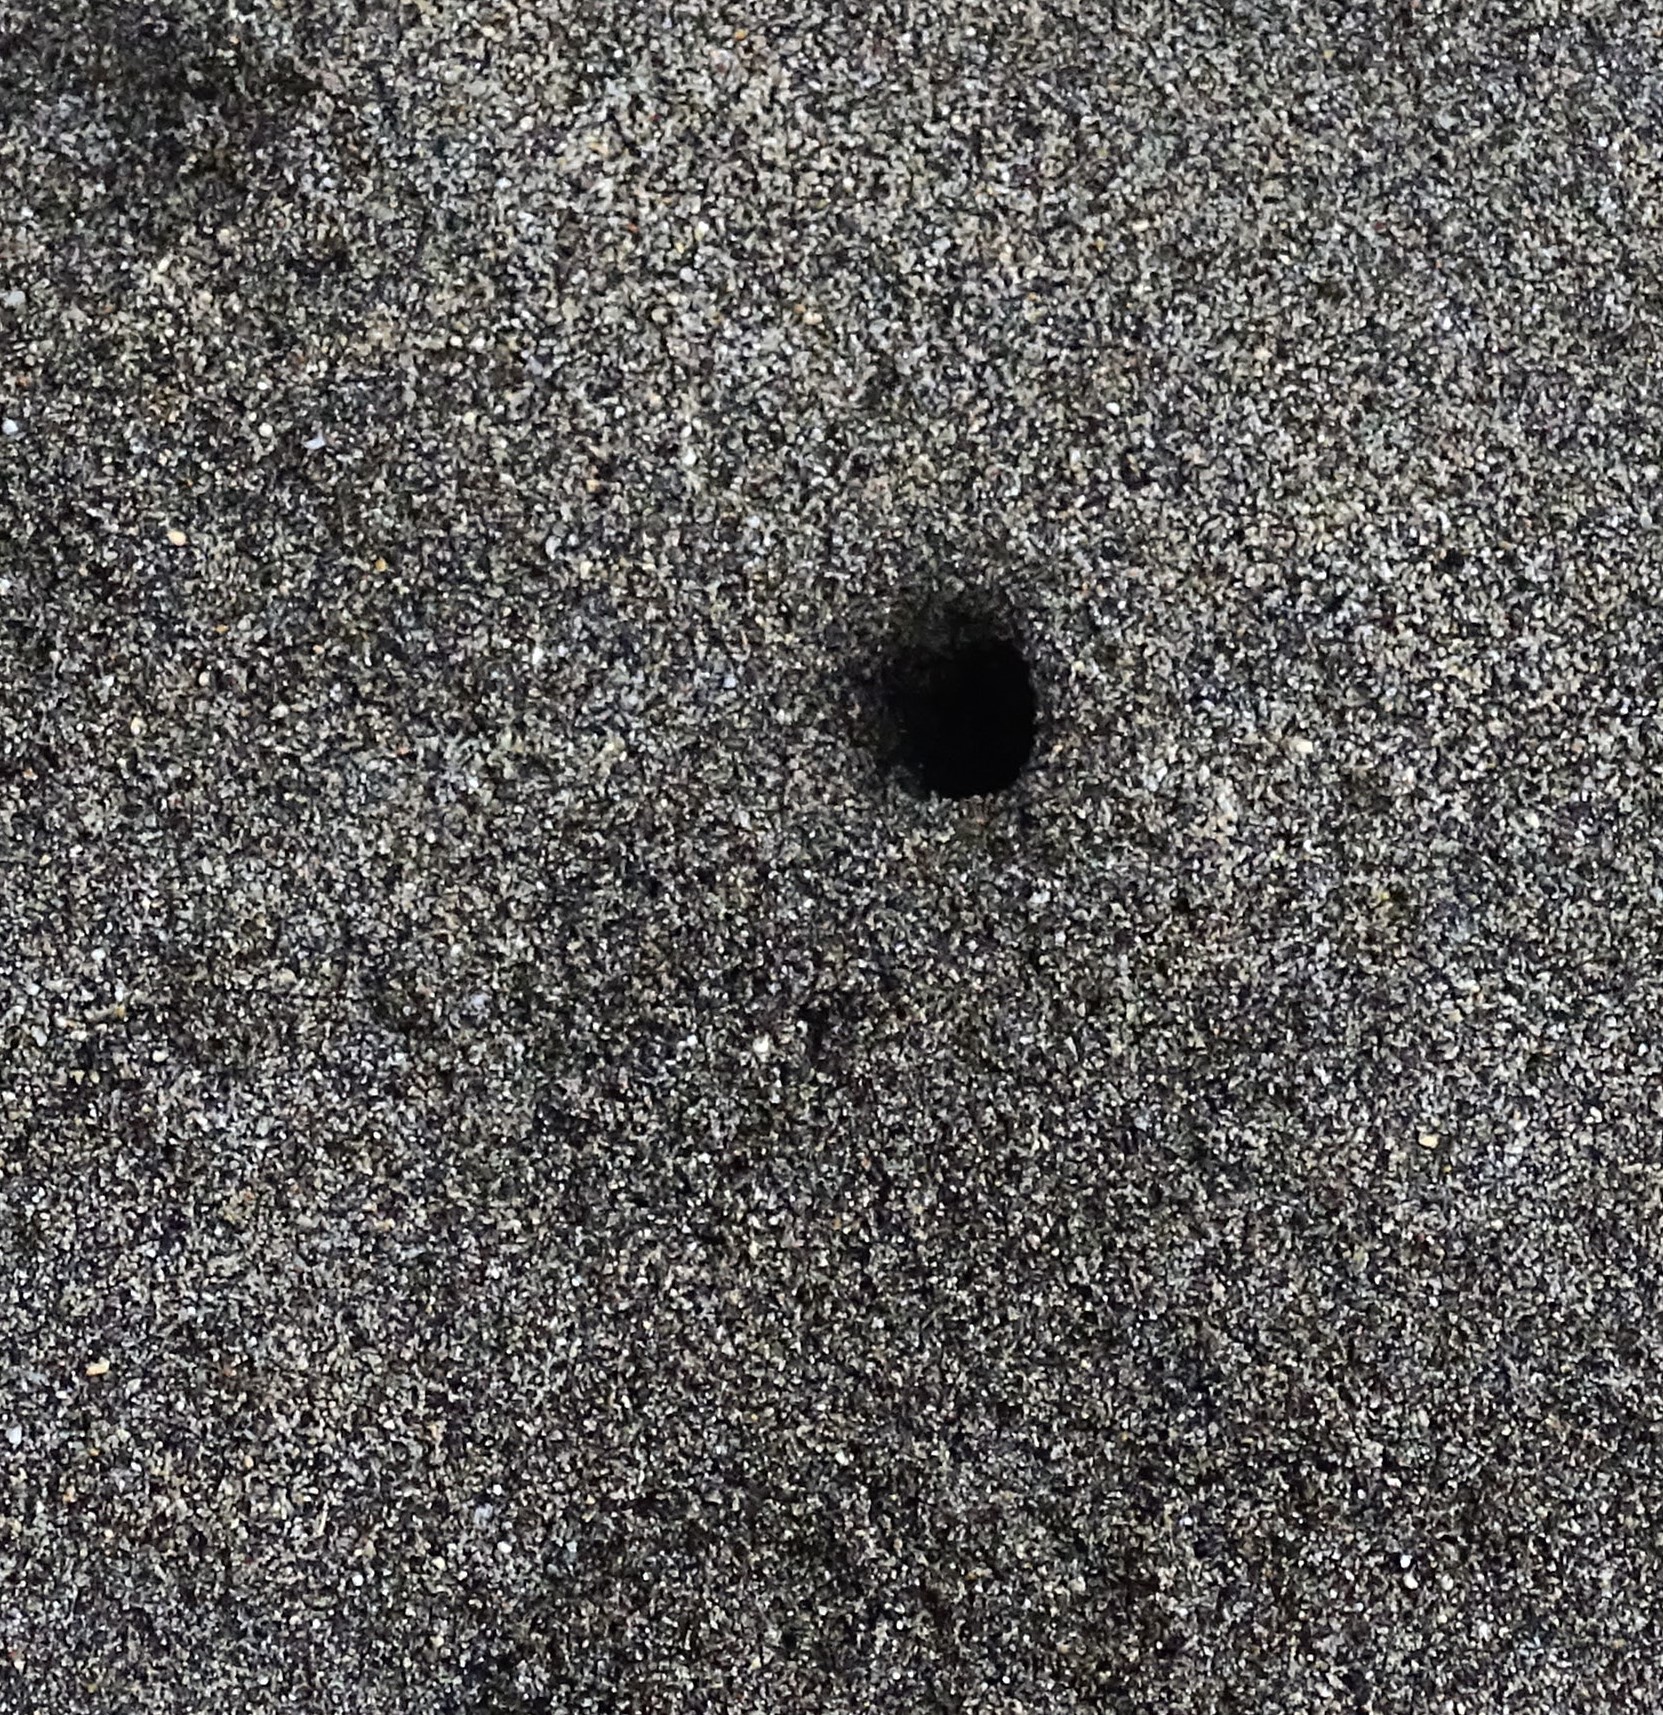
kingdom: Animalia
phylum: Arthropoda
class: Malacostraca
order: Decapoda
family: Ocypodidae
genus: Ocypode
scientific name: Ocypode pallidula
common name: Pallid ghost crab
